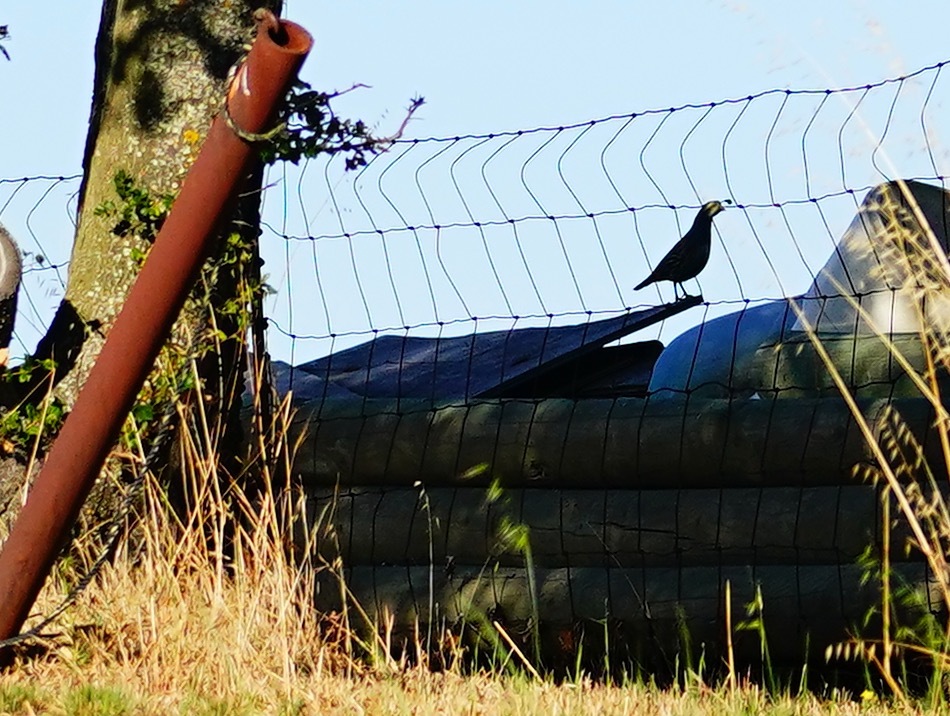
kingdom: Animalia
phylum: Chordata
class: Aves
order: Galliformes
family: Odontophoridae
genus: Callipepla
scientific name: Callipepla californica
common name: California quail
